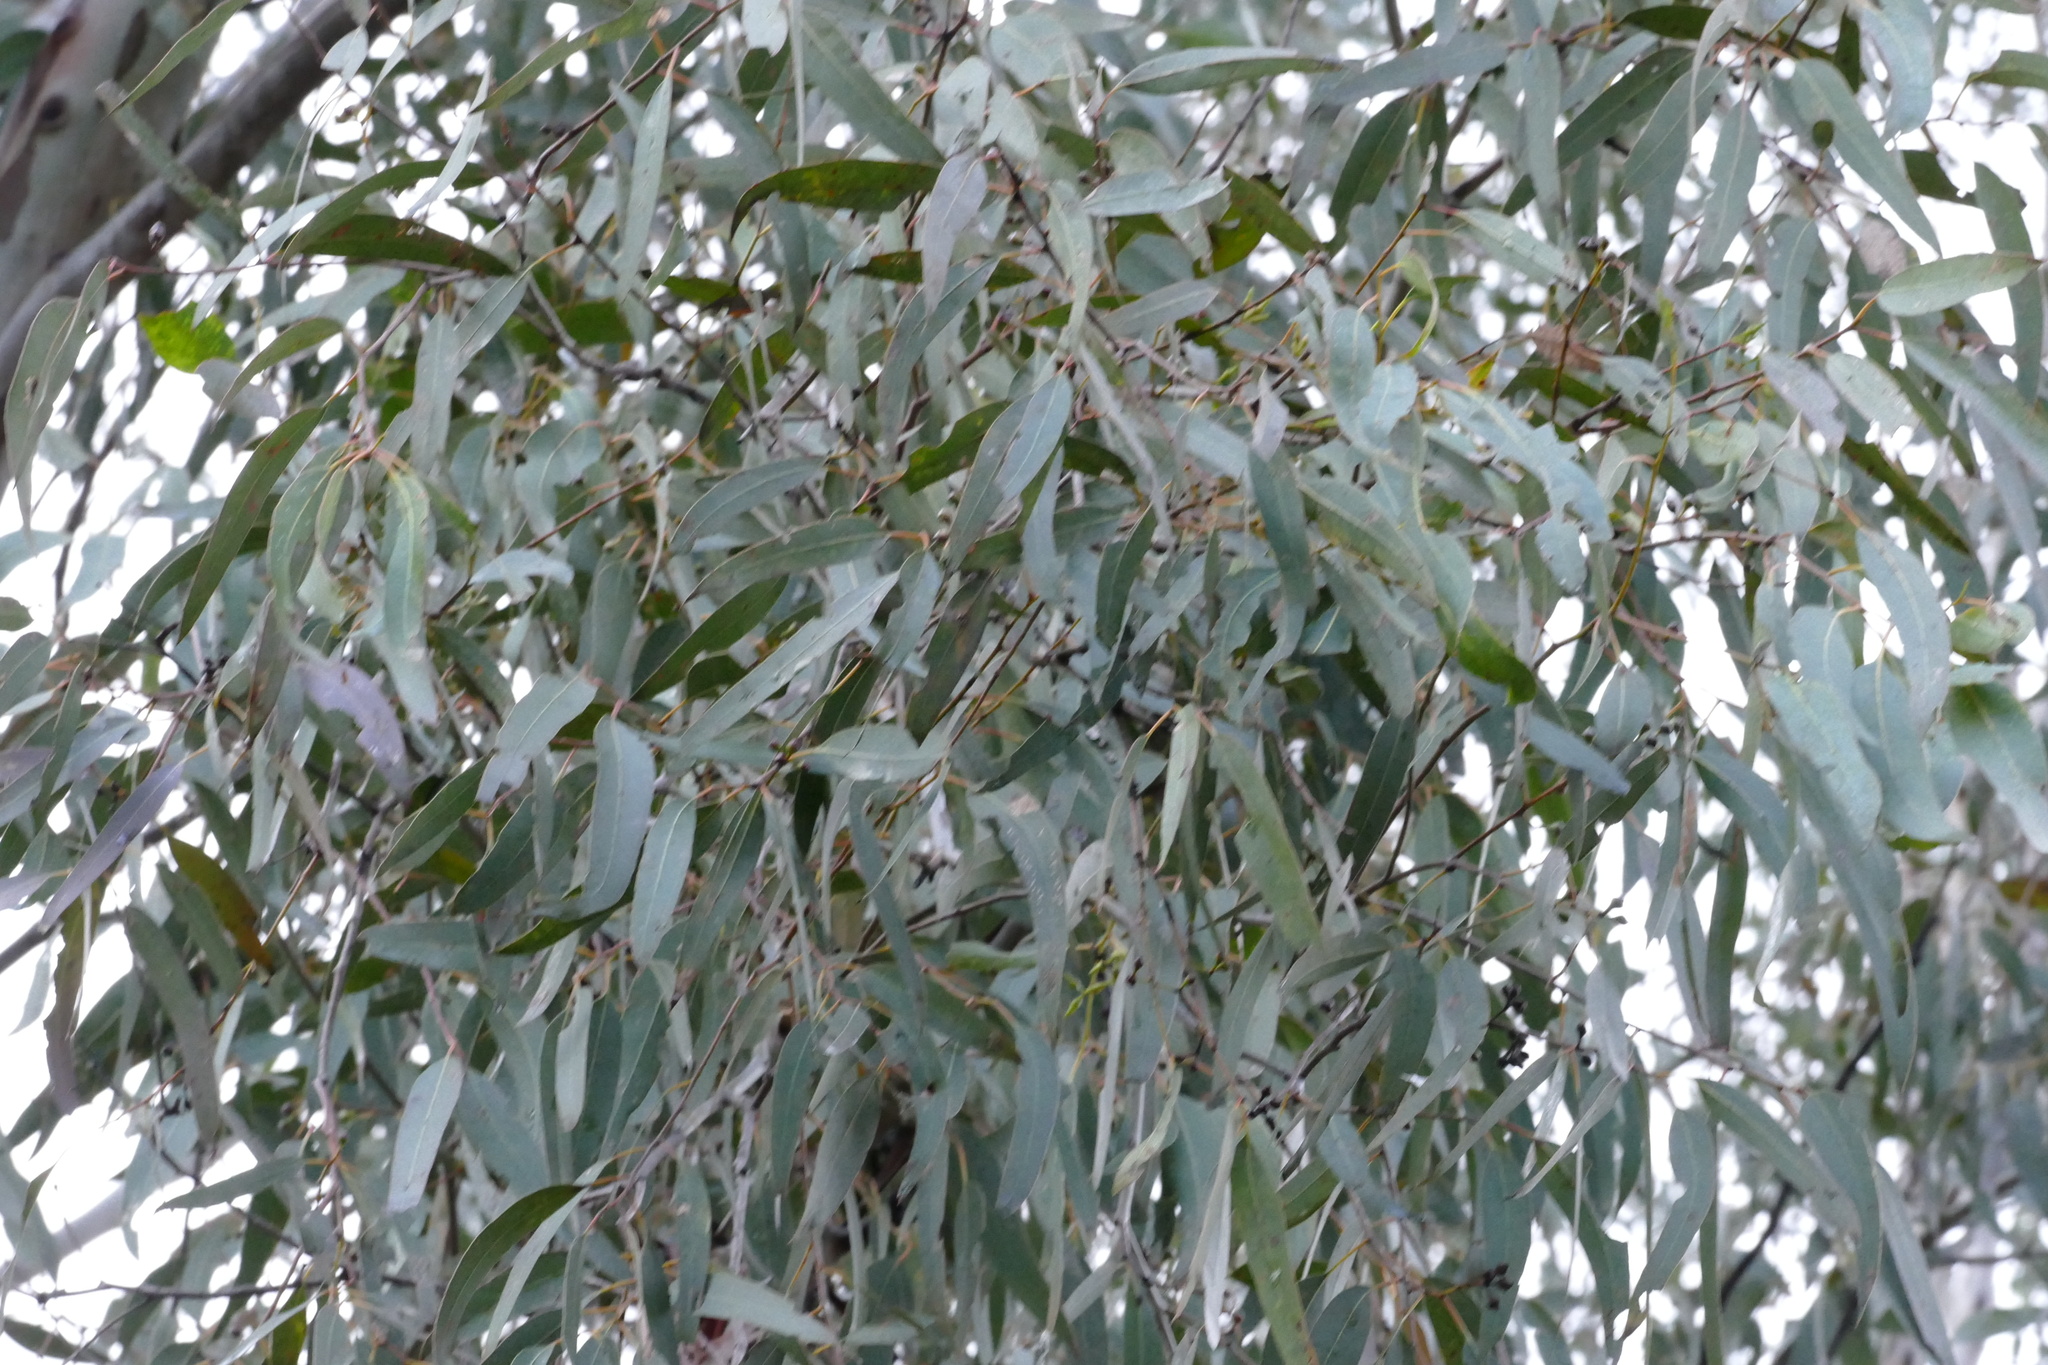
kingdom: Plantae
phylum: Tracheophyta
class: Magnoliopsida
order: Myrtales
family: Myrtaceae
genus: Eucalyptus
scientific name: Eucalyptus chloroclada
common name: Baradine red gum
